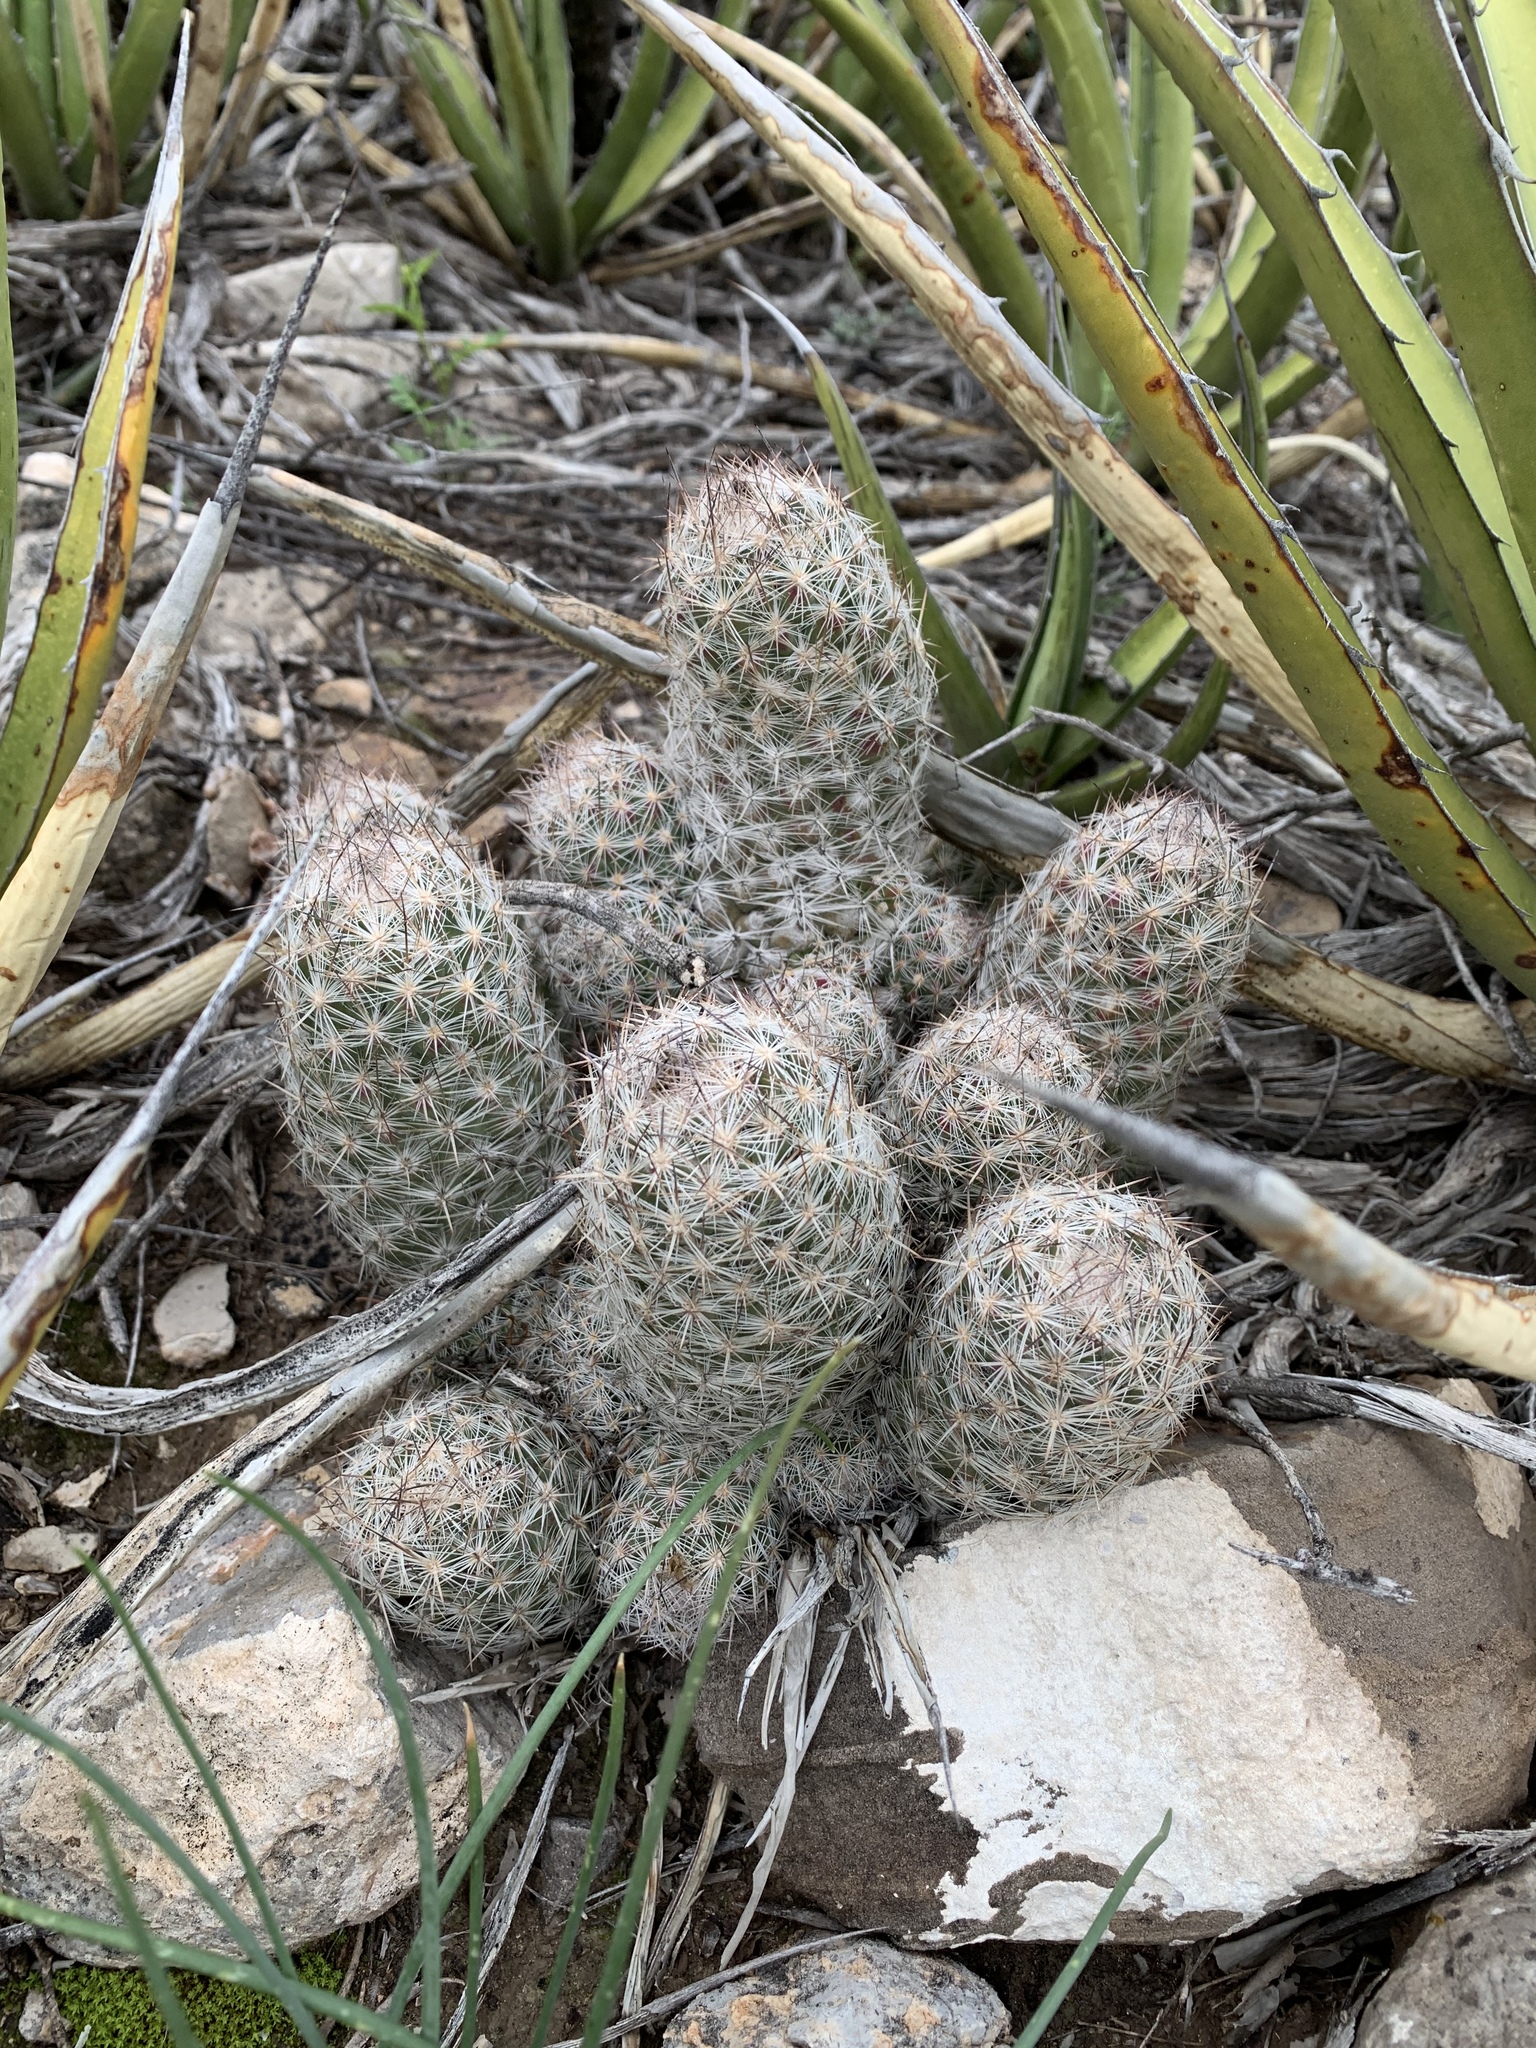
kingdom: Plantae
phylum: Tracheophyta
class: Magnoliopsida
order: Caryophyllales
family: Cactaceae
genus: Pelecyphora
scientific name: Pelecyphora tuberculosa
